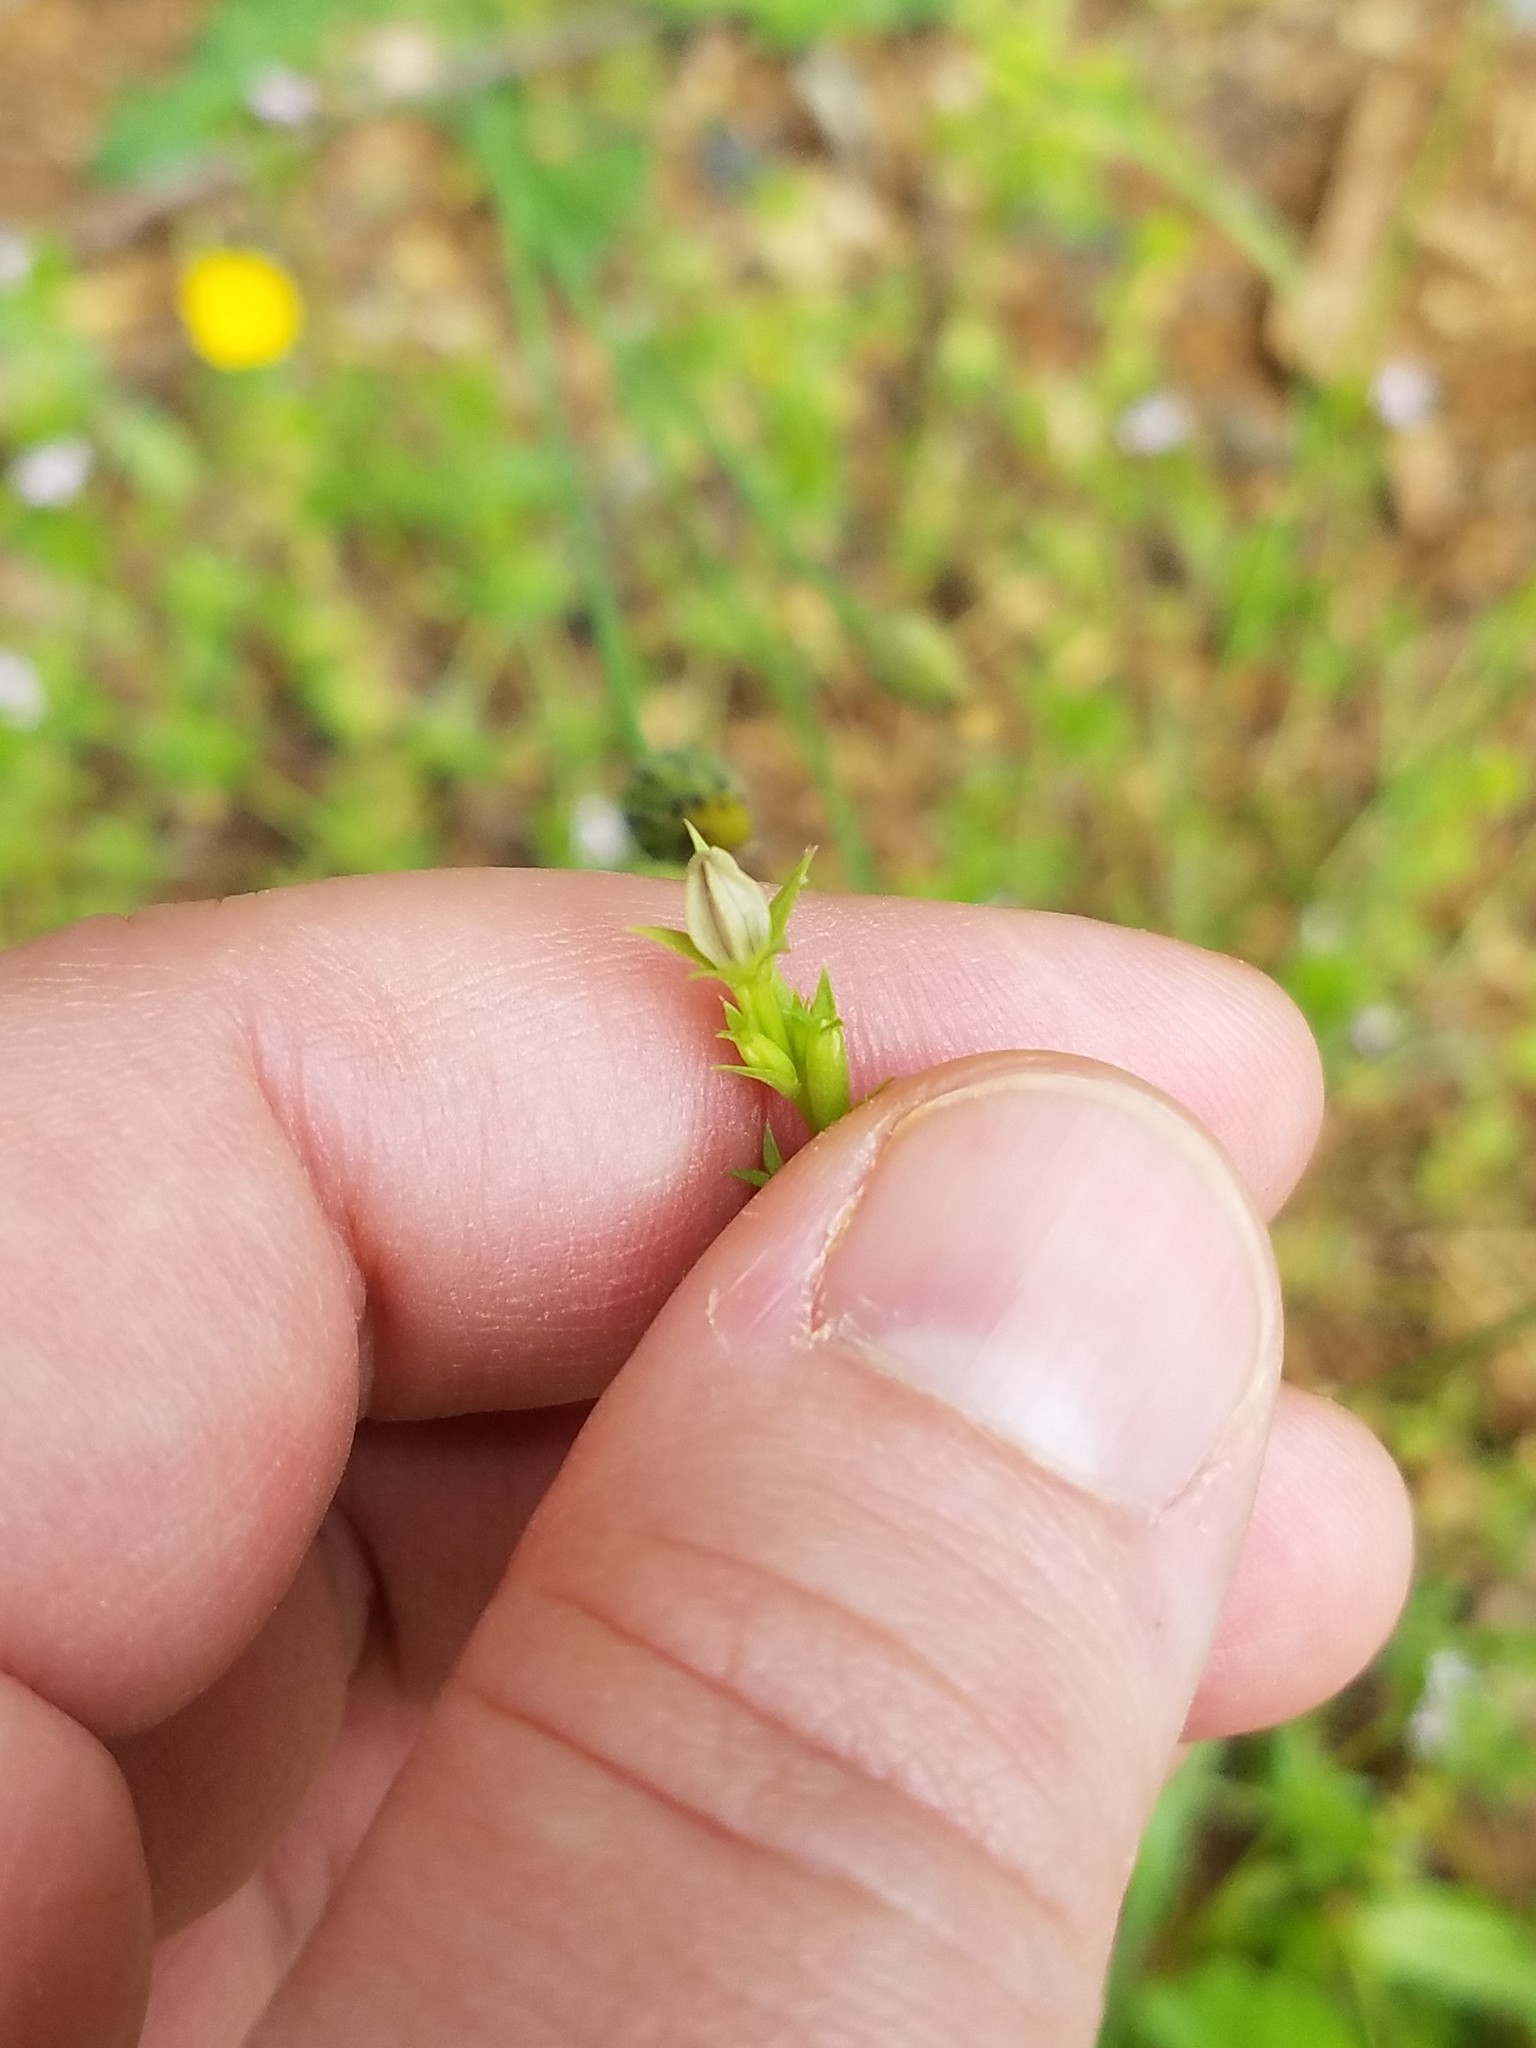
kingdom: Plantae
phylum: Tracheophyta
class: Magnoliopsida
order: Asterales
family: Campanulaceae
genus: Triodanis
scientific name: Triodanis biflora
